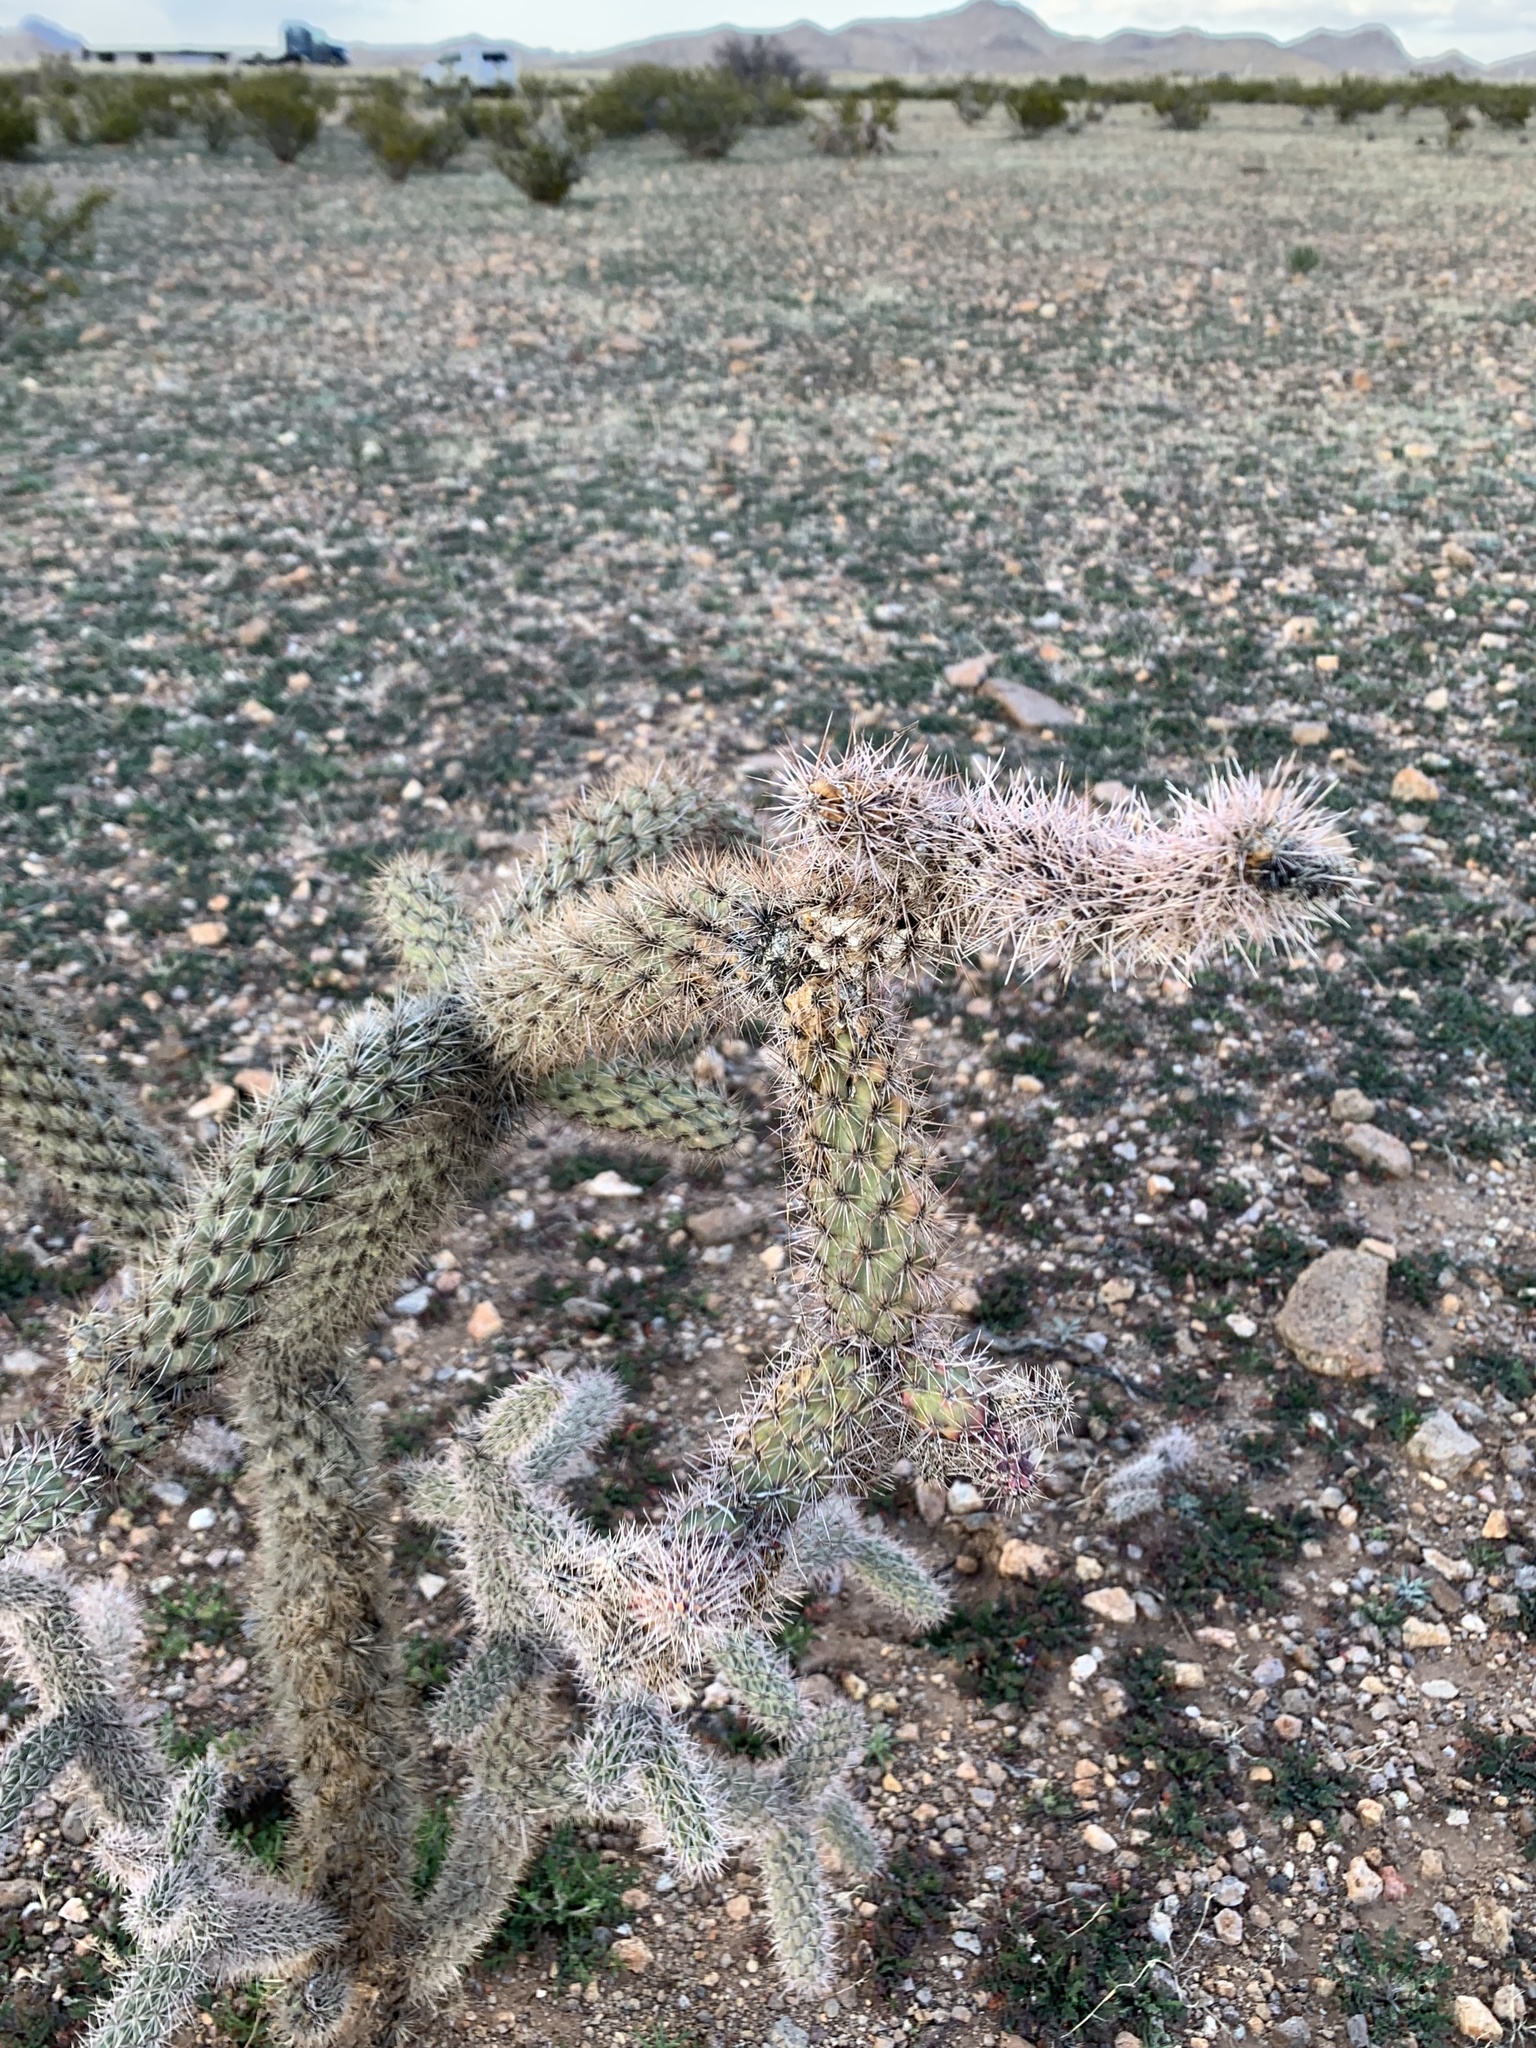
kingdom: Plantae
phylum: Tracheophyta
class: Magnoliopsida
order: Caryophyllales
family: Cactaceae
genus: Cylindropuntia
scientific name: Cylindropuntia imbricata
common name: Candelabrum cactus
